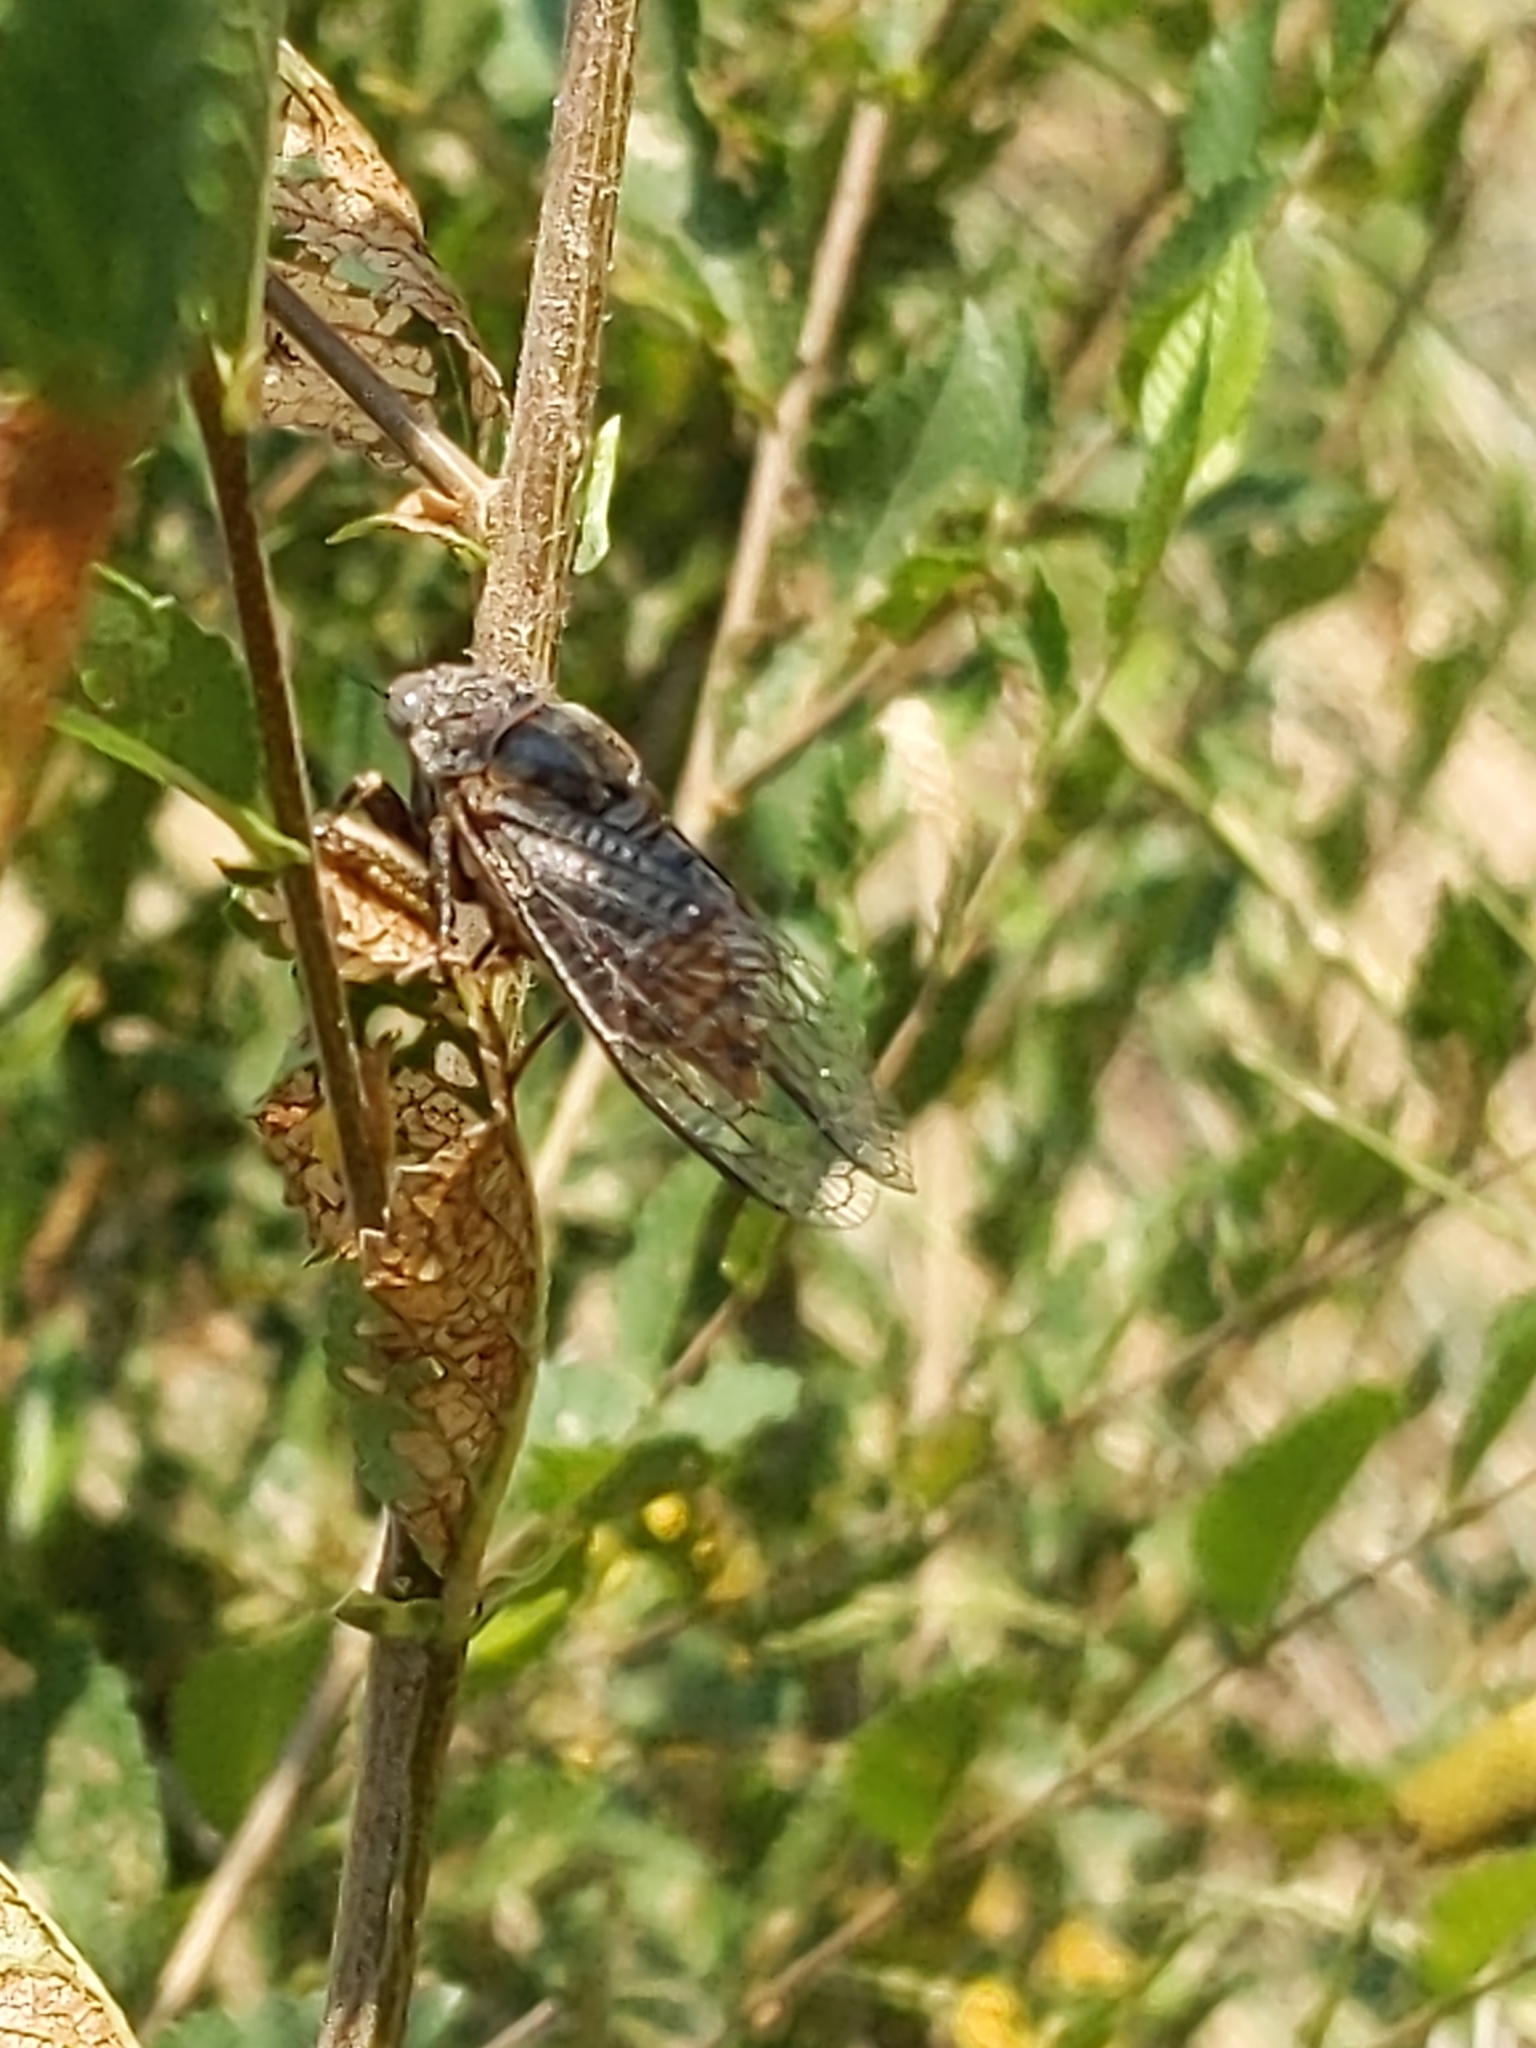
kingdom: Animalia
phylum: Arthropoda
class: Insecta
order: Hemiptera
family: Cicadidae
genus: Okanagana
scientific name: Okanagana hesperia
